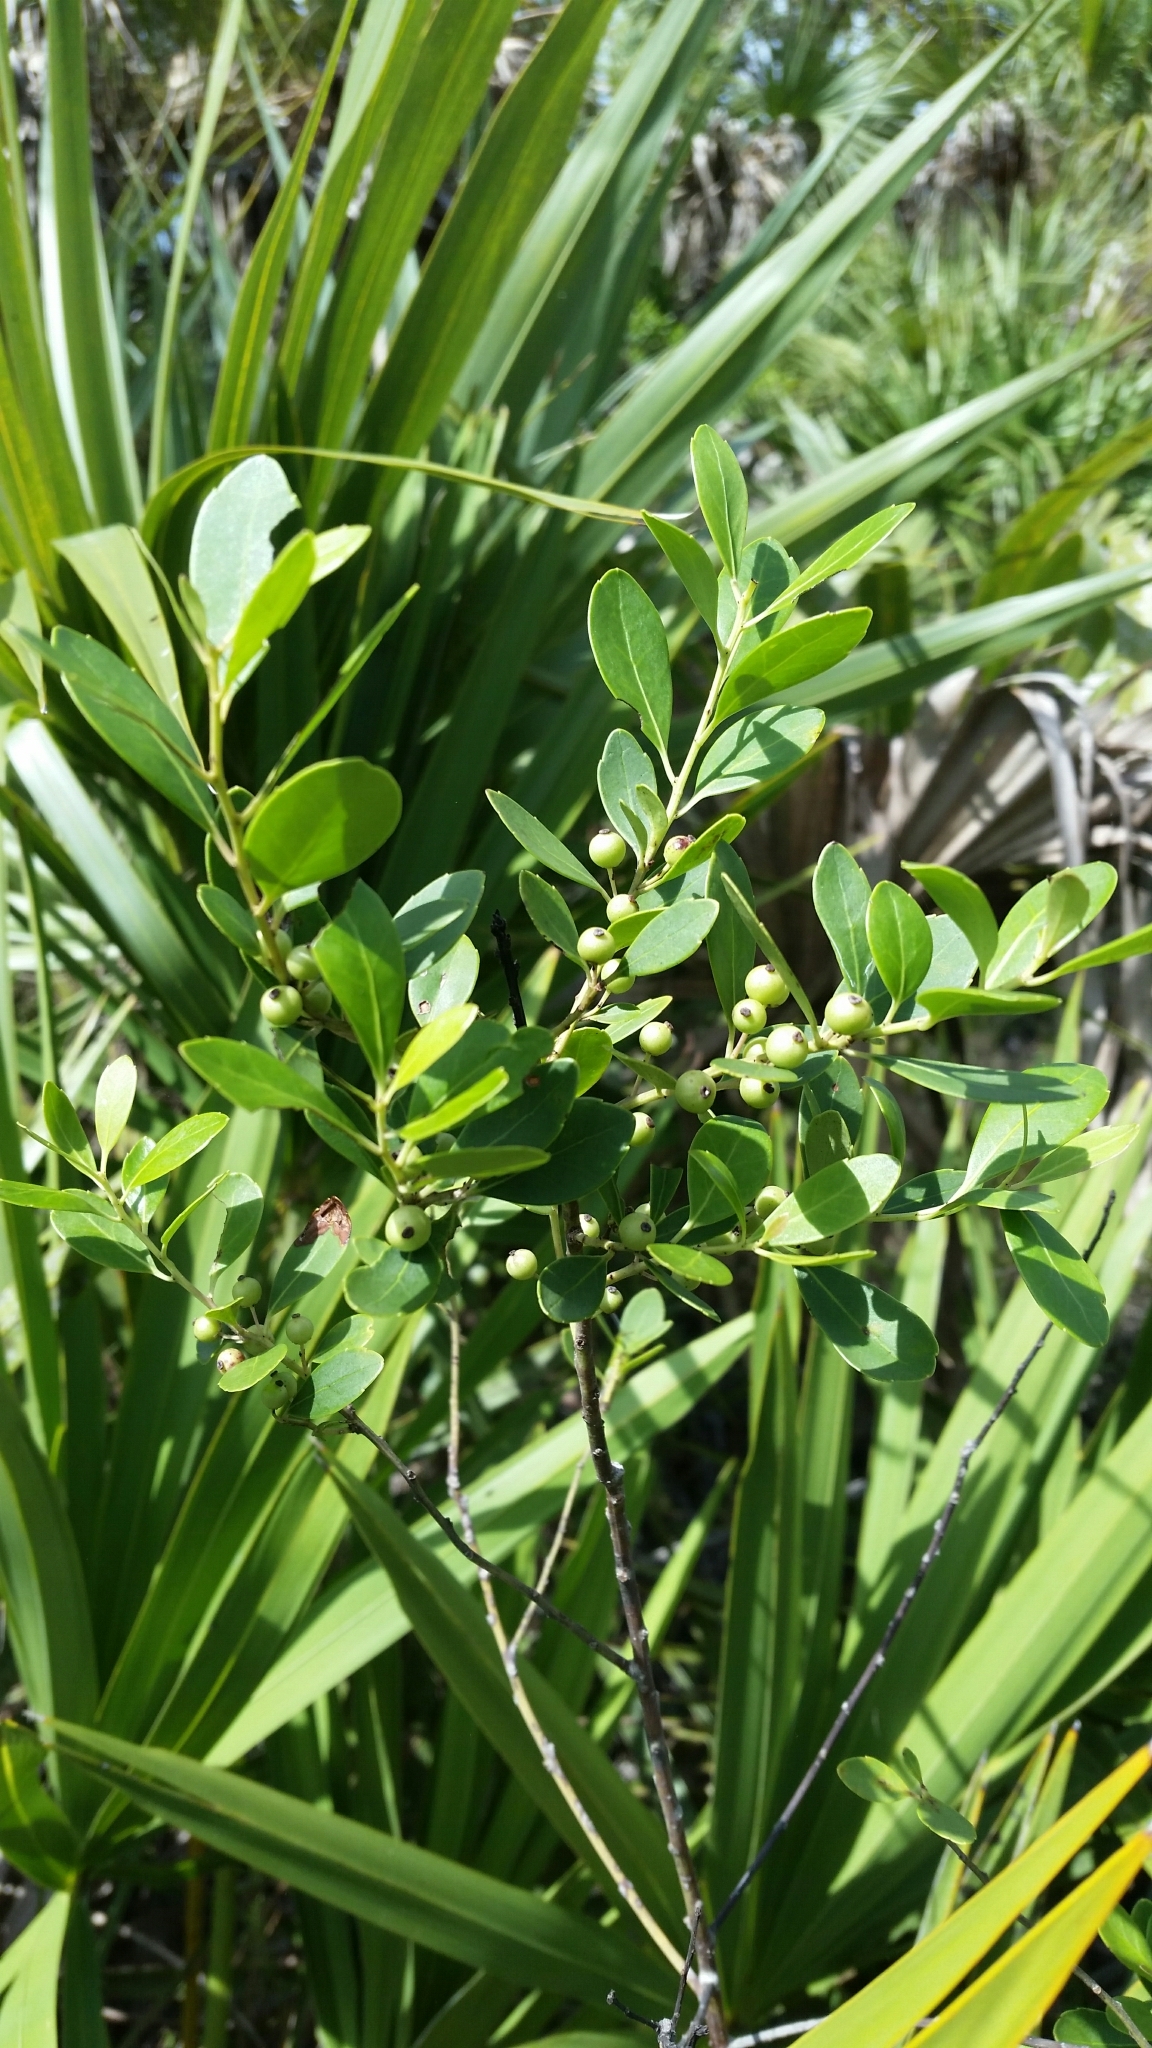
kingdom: Plantae
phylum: Tracheophyta
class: Magnoliopsida
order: Aquifoliales
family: Aquifoliaceae
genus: Ilex
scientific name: Ilex glabra
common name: Bitter gallberry
